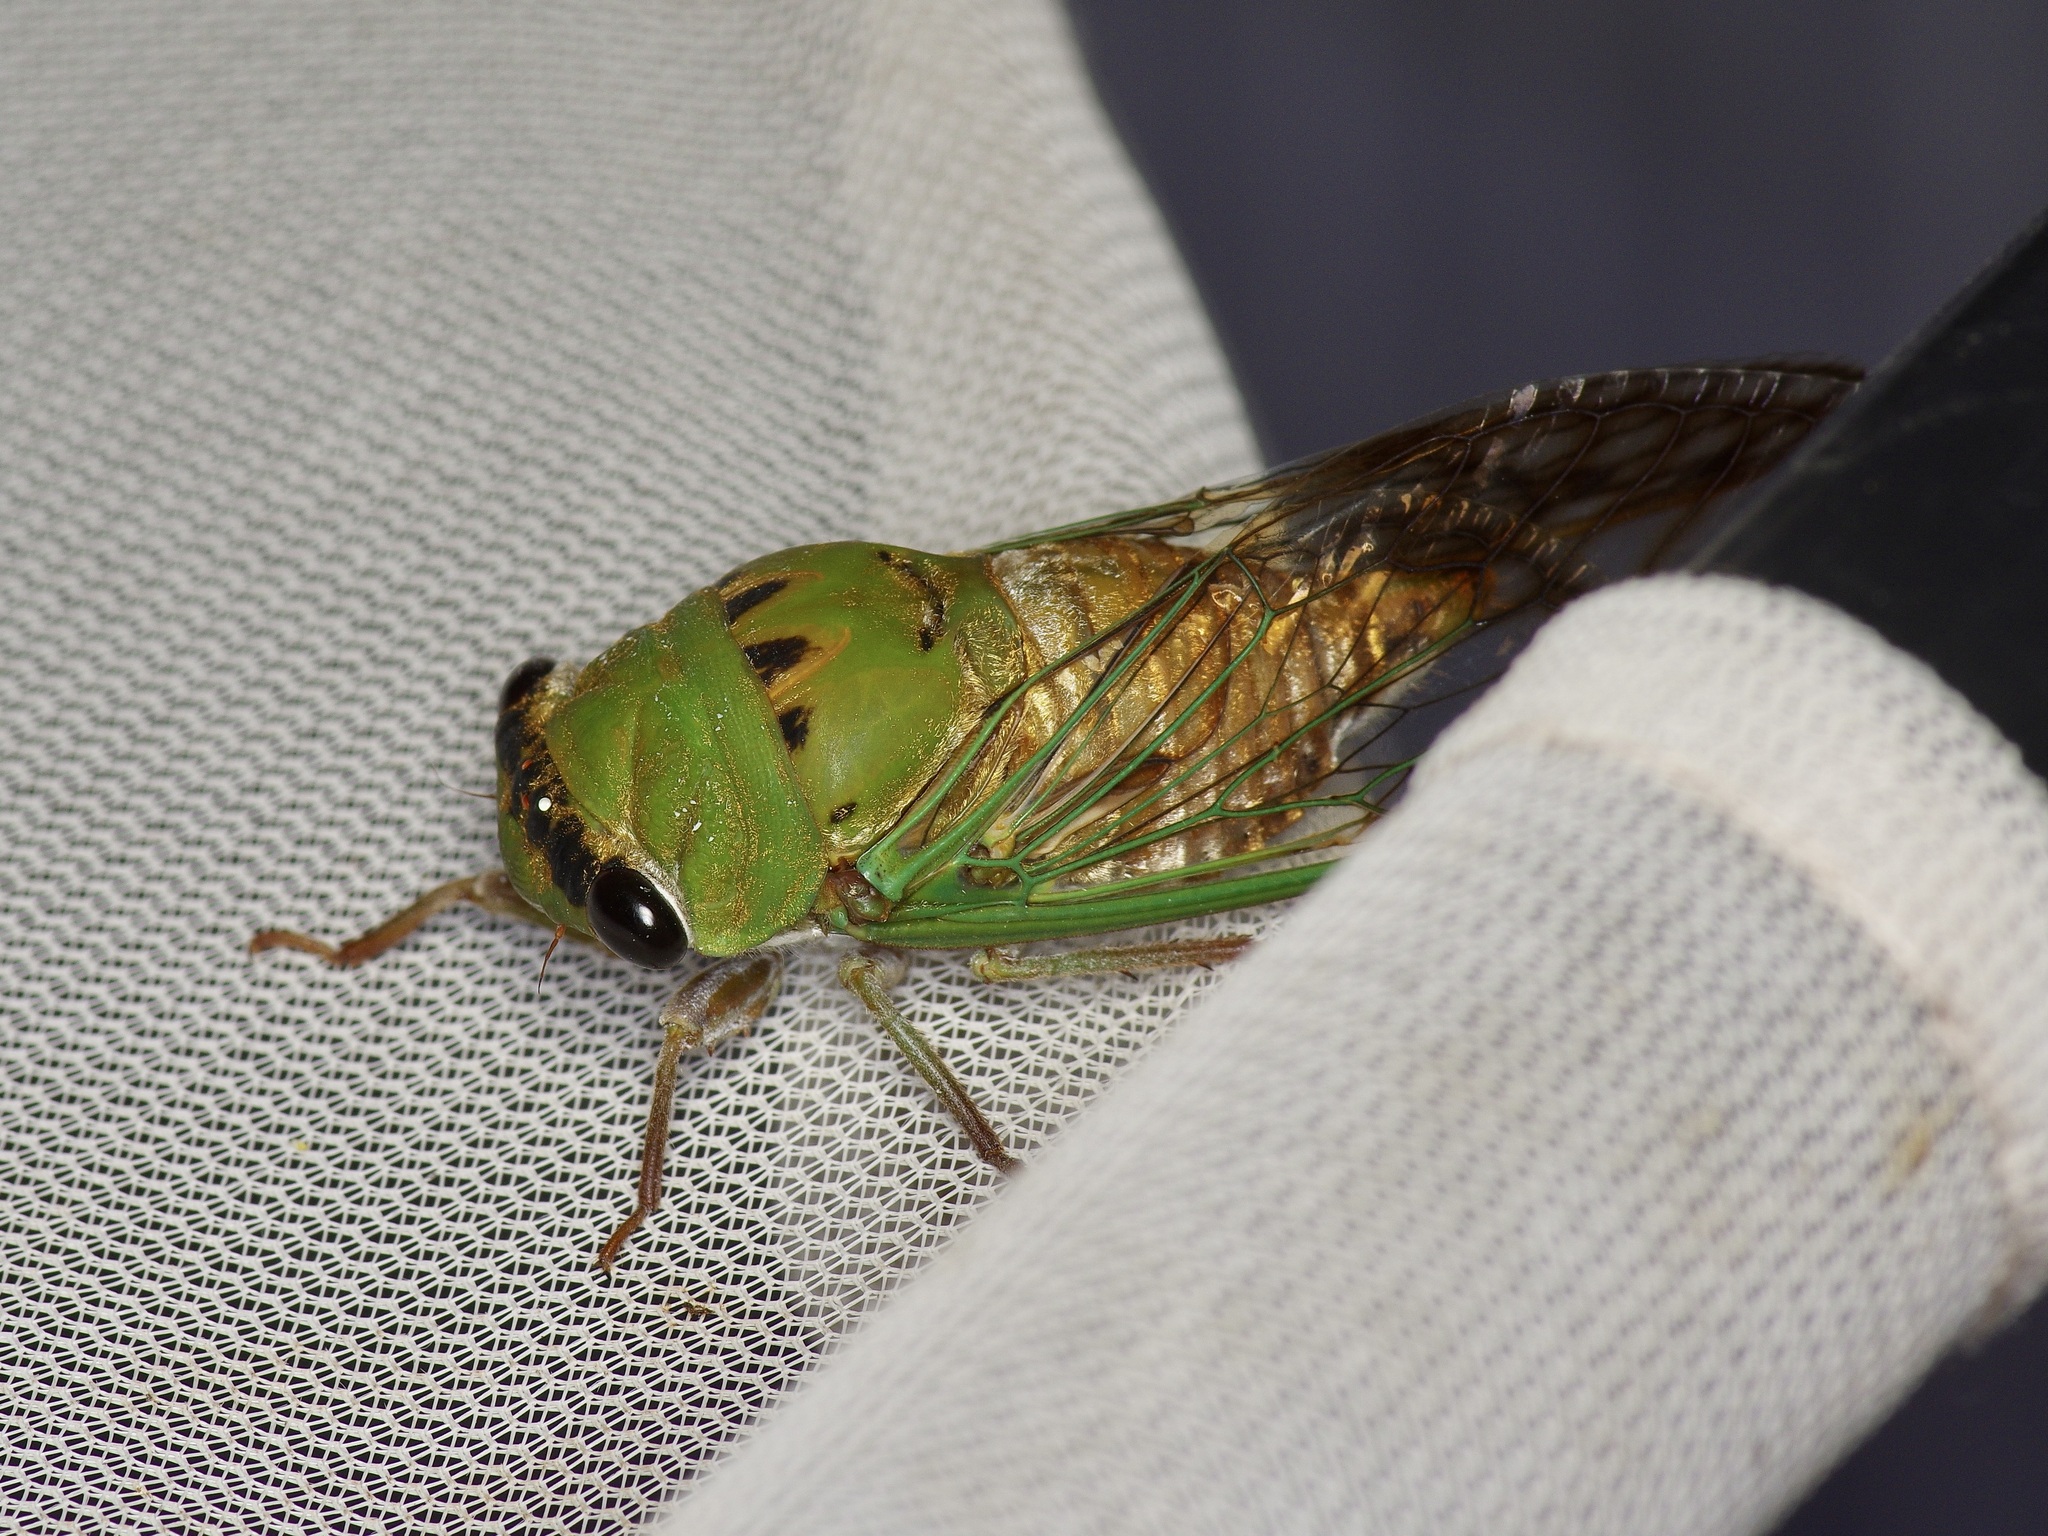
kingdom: Animalia
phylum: Arthropoda
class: Insecta
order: Hemiptera
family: Cicadidae
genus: Neotibicen
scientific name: Neotibicen superbus
